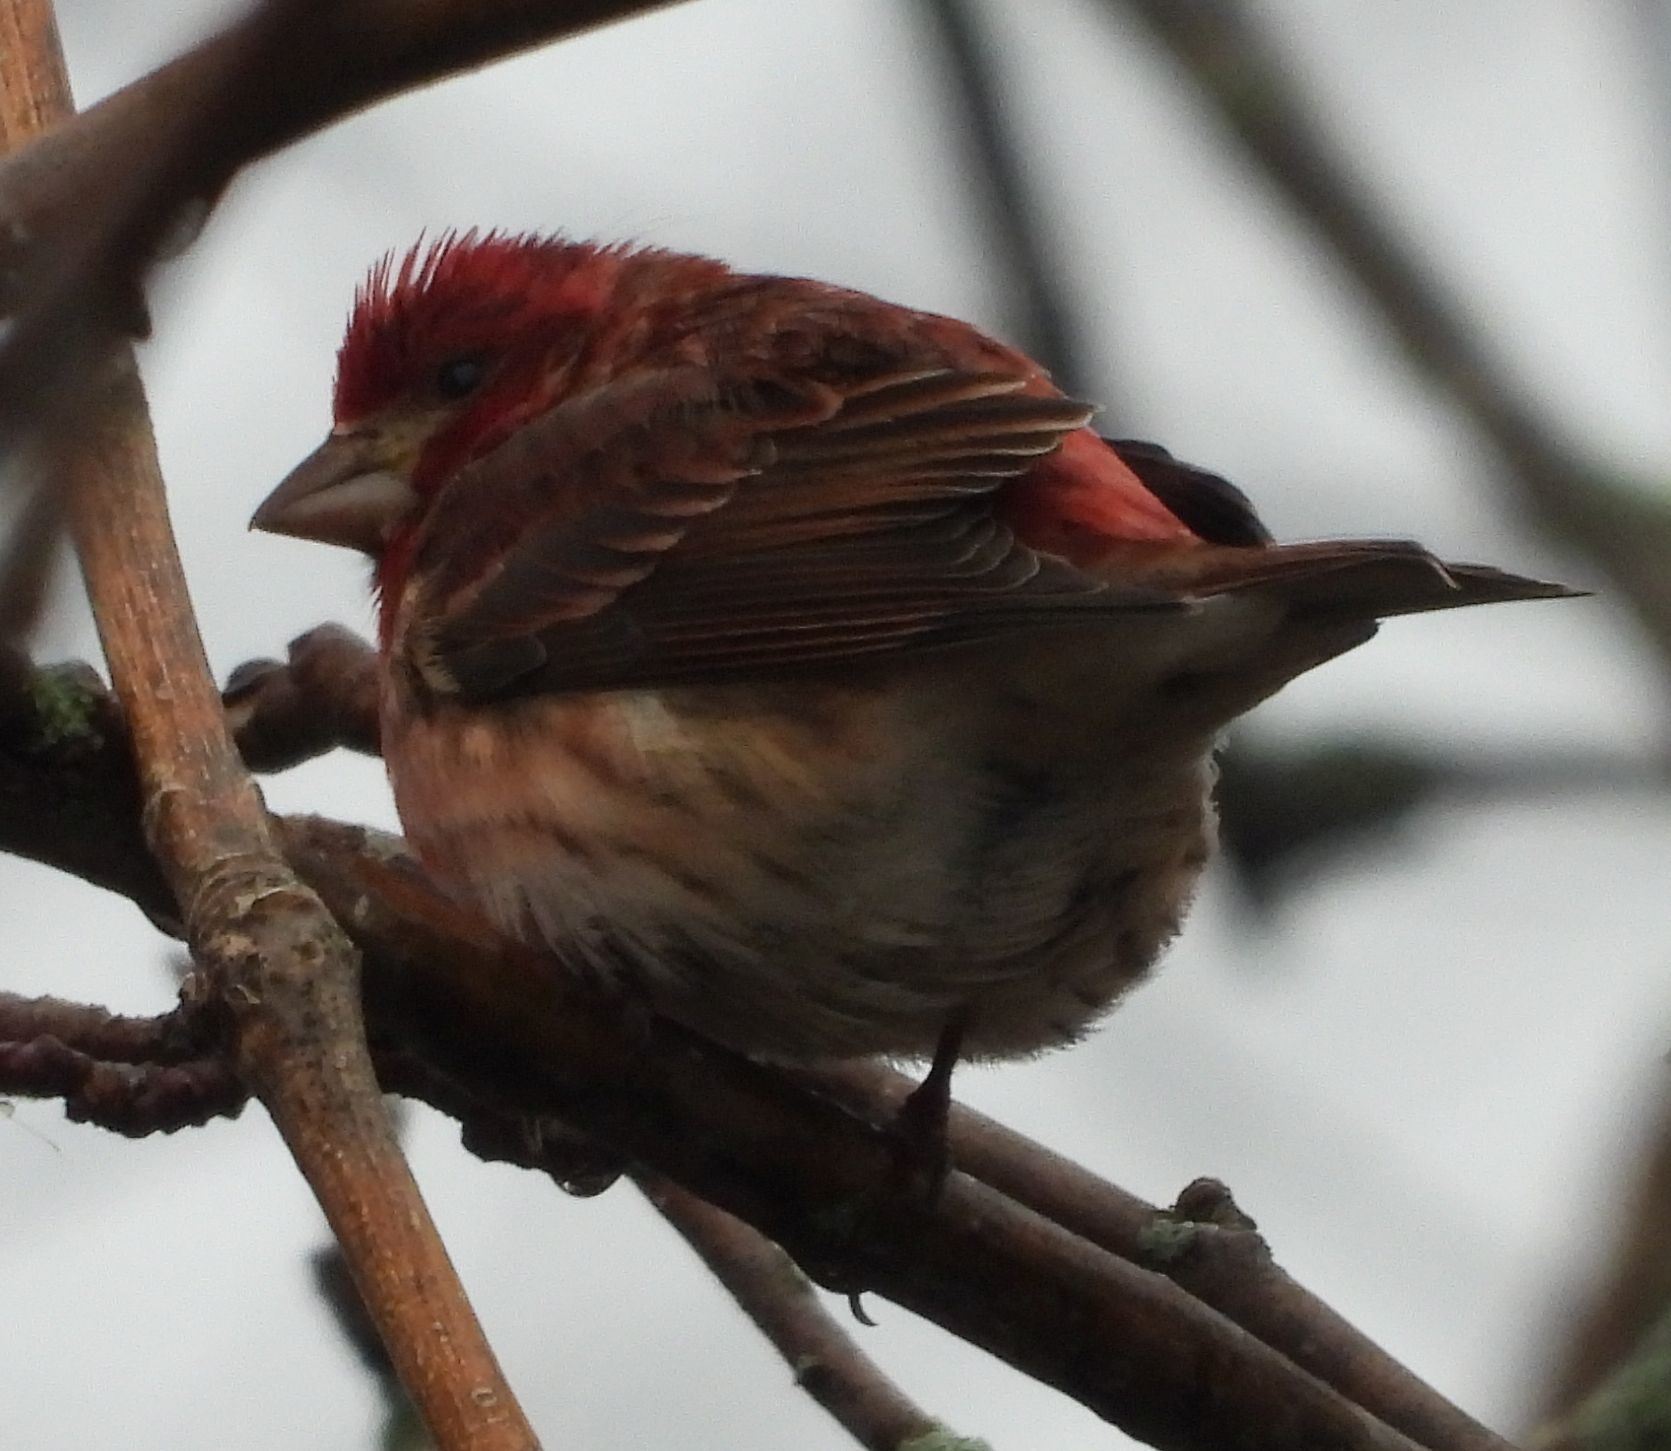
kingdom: Animalia
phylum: Chordata
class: Aves
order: Passeriformes
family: Fringillidae
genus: Haemorhous
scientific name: Haemorhous purpureus
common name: Purple finch
